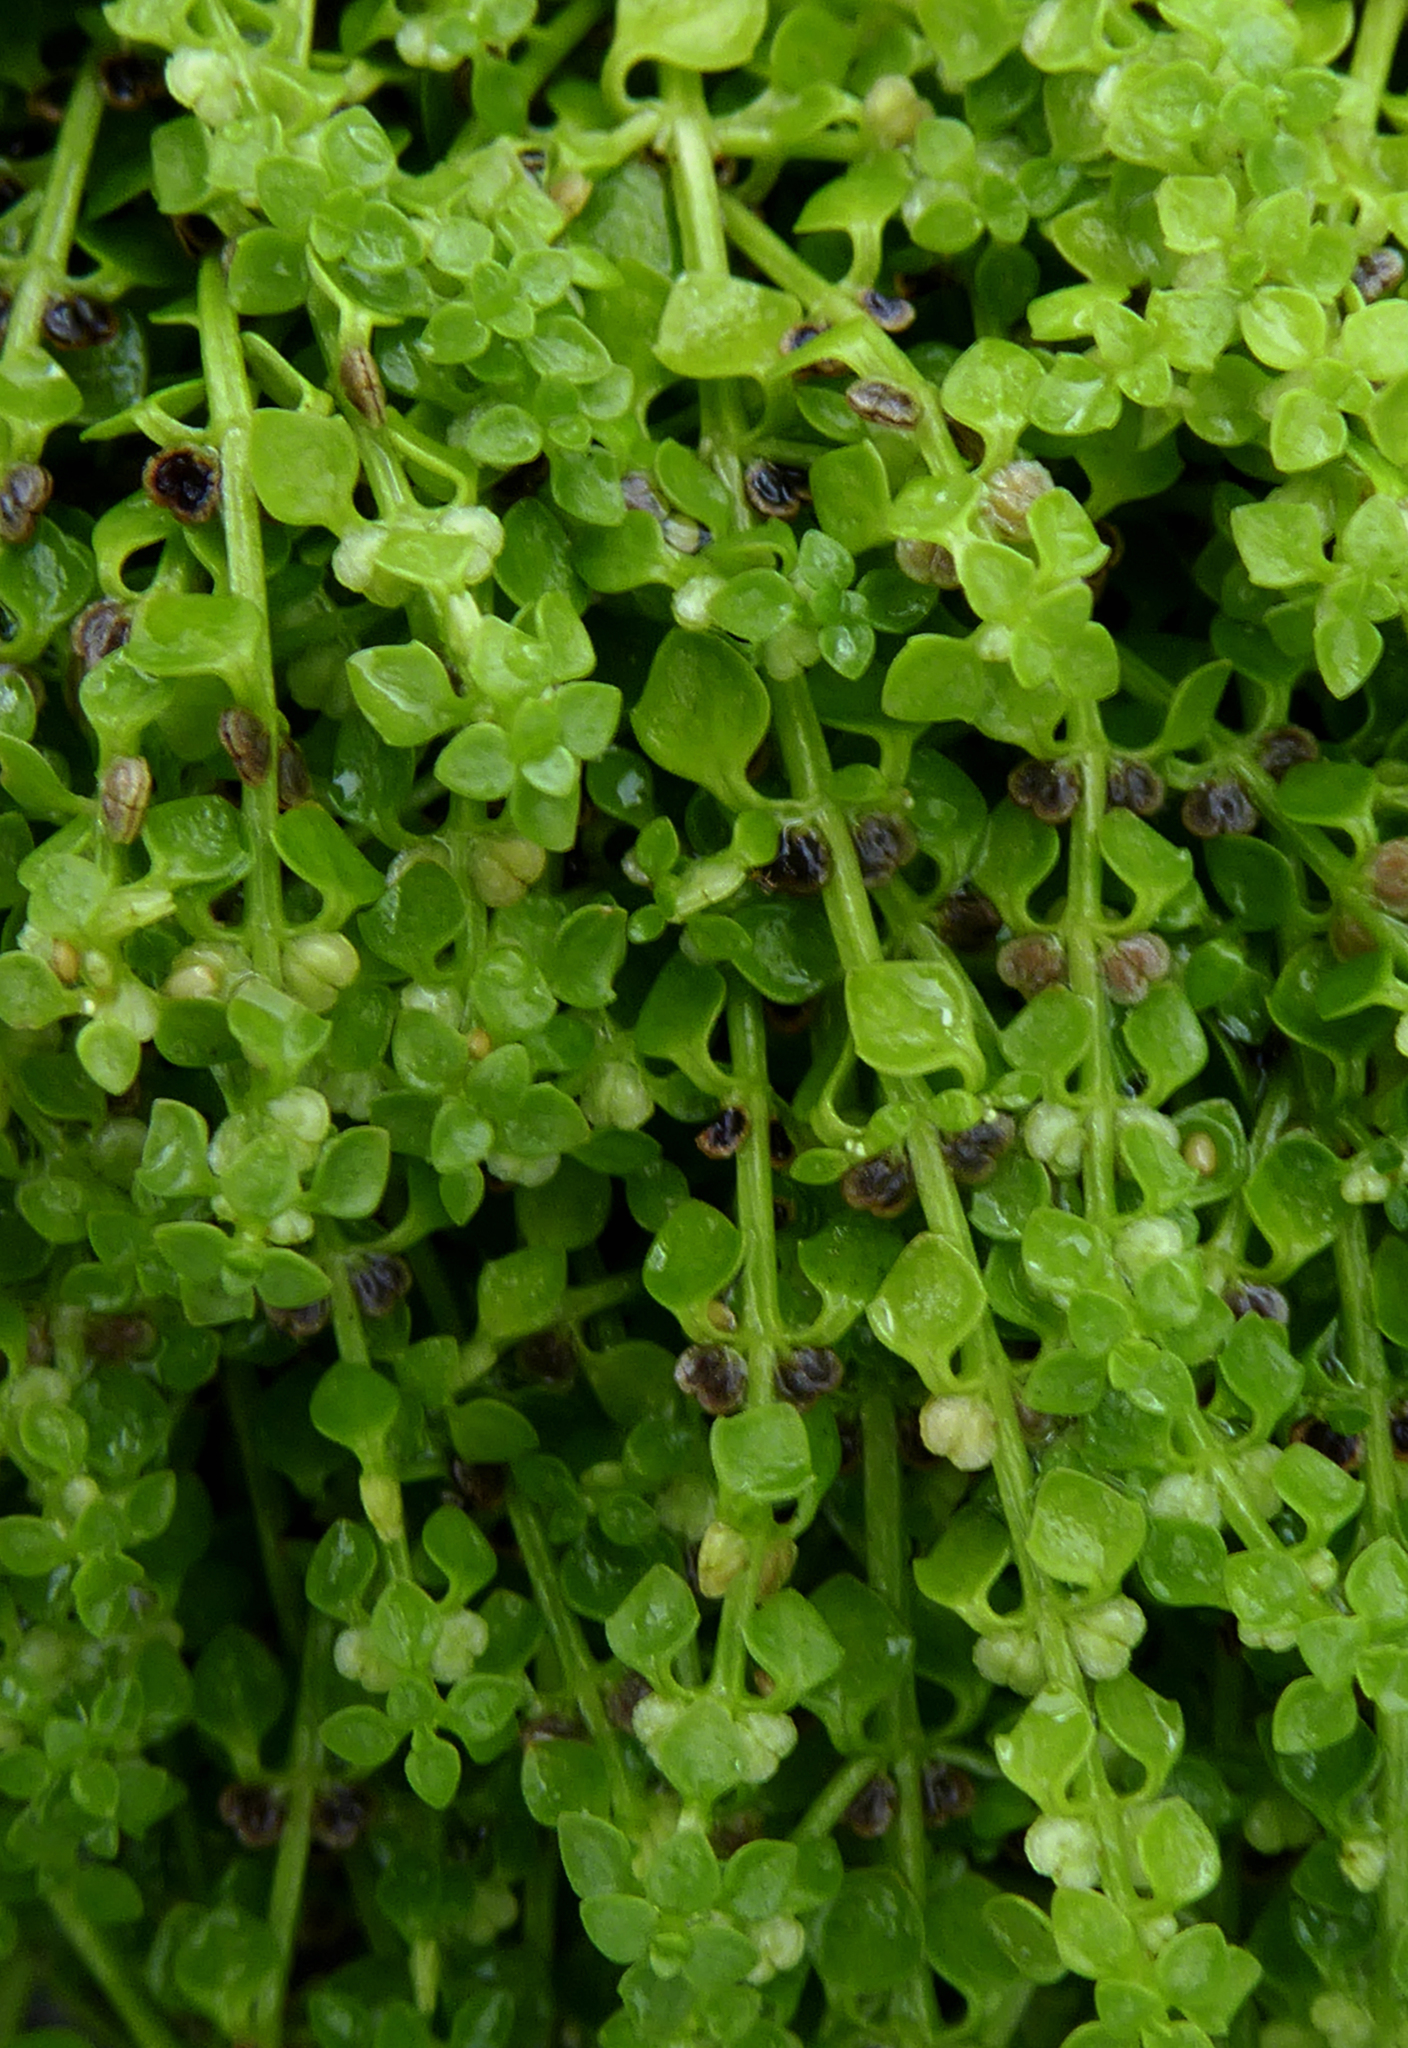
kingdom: Plantae
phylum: Tracheophyta
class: Magnoliopsida
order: Lamiales
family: Plantaginaceae
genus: Callitriche
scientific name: Callitriche muelleri
